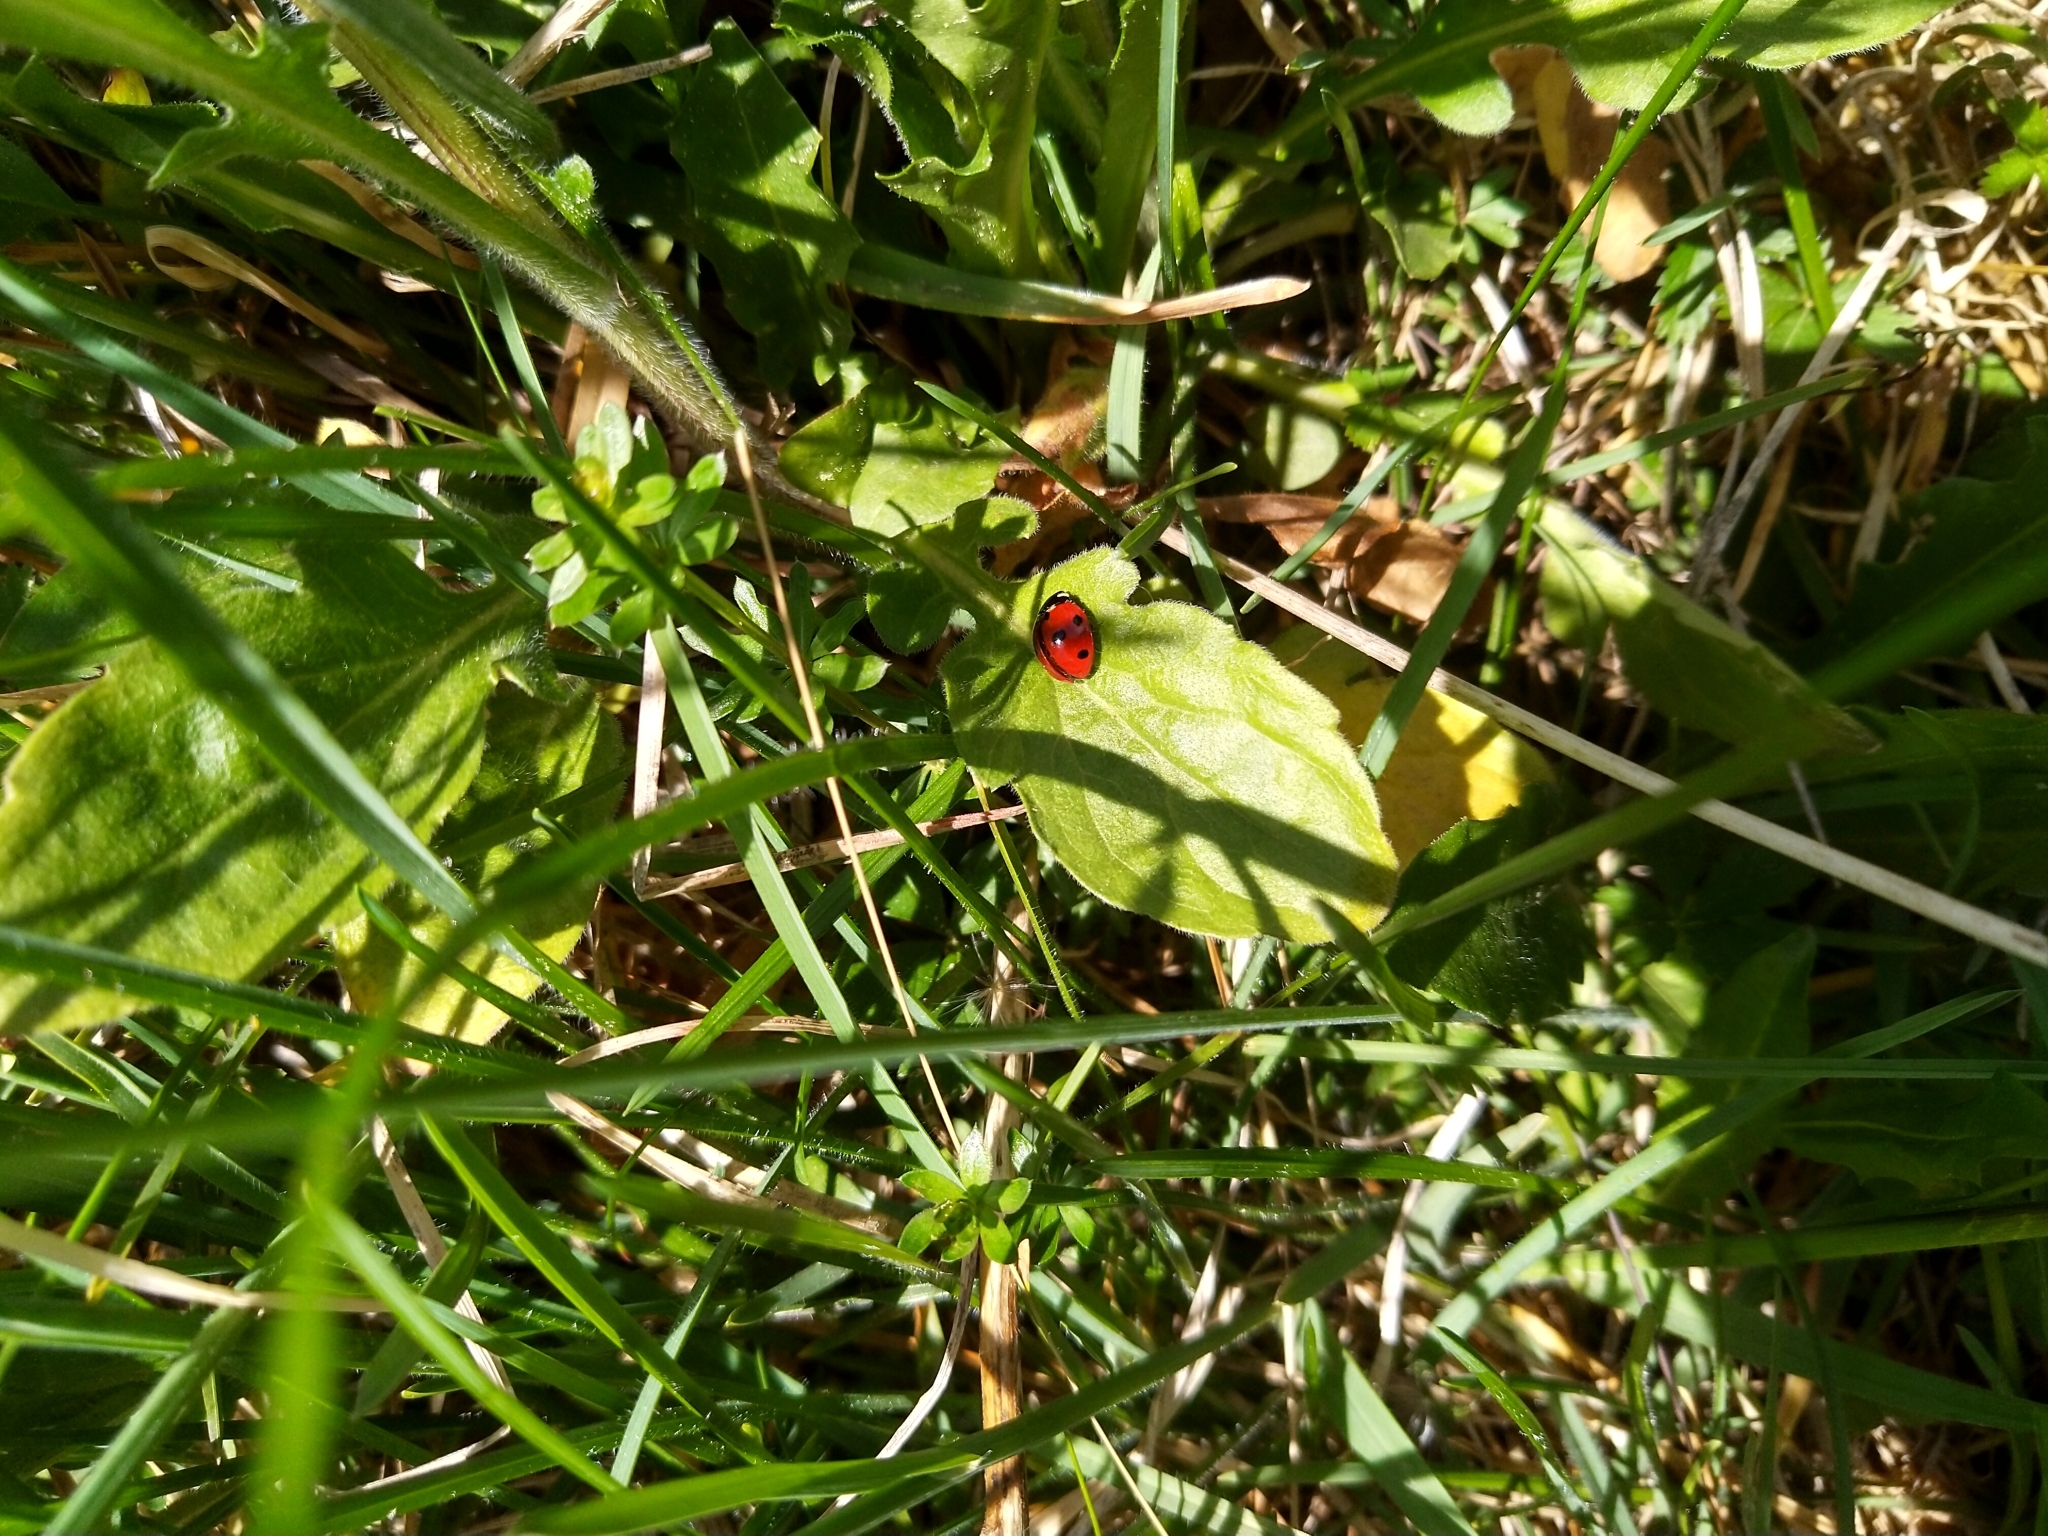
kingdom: Animalia
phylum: Arthropoda
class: Insecta
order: Coleoptera
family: Coccinellidae
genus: Coccinella
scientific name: Coccinella septempunctata
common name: Sevenspotted lady beetle
